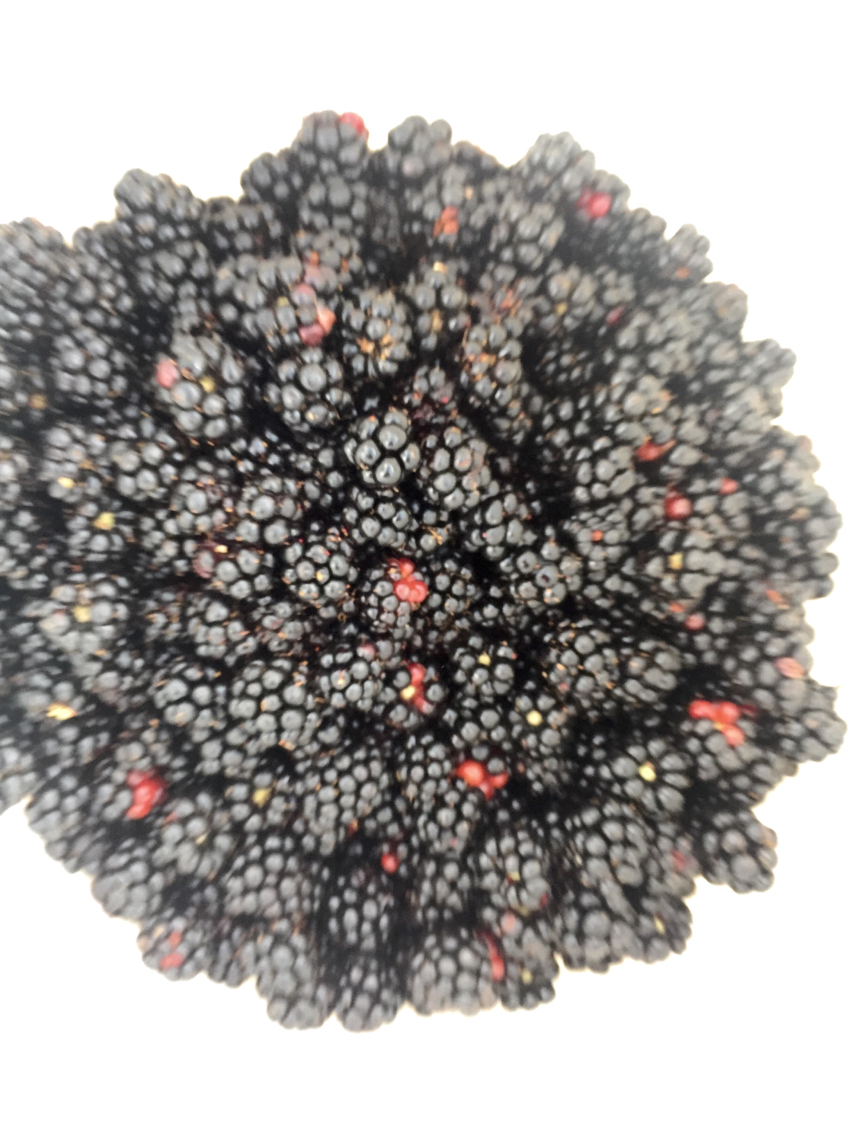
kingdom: Plantae
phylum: Tracheophyta
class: Magnoliopsida
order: Rosales
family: Rosaceae
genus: Rubus
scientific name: Rubus armeniacus
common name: Himalayan blackberry
